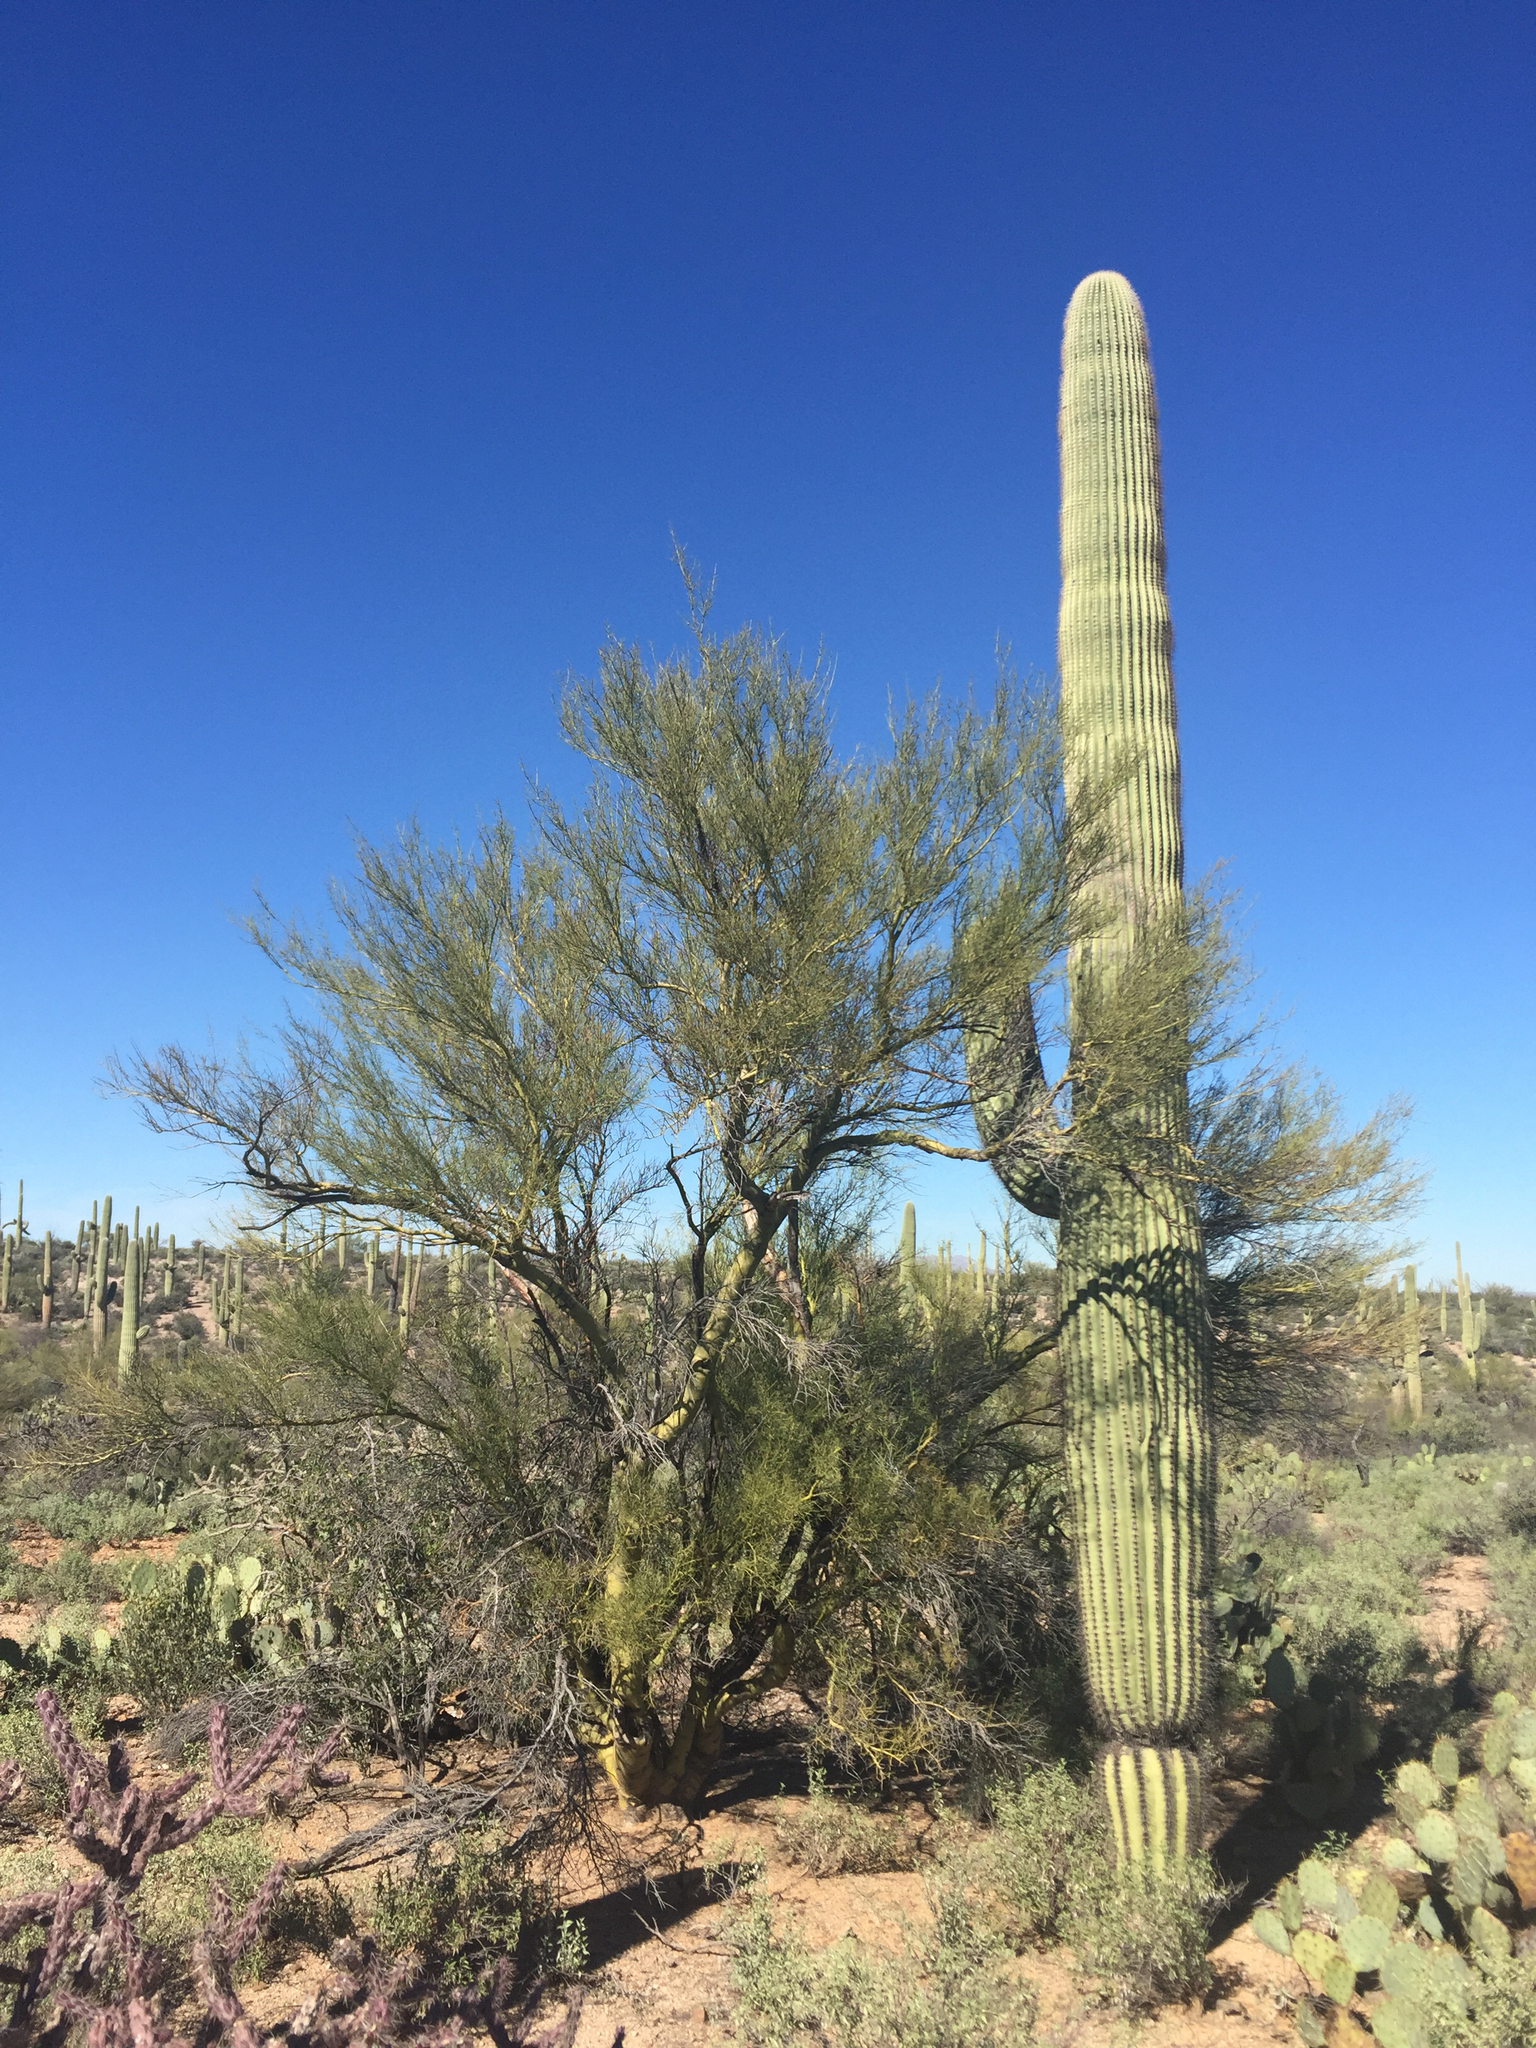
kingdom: Plantae
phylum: Tracheophyta
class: Magnoliopsida
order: Caryophyllales
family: Cactaceae
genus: Carnegiea
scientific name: Carnegiea gigantea
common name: Saguaro
